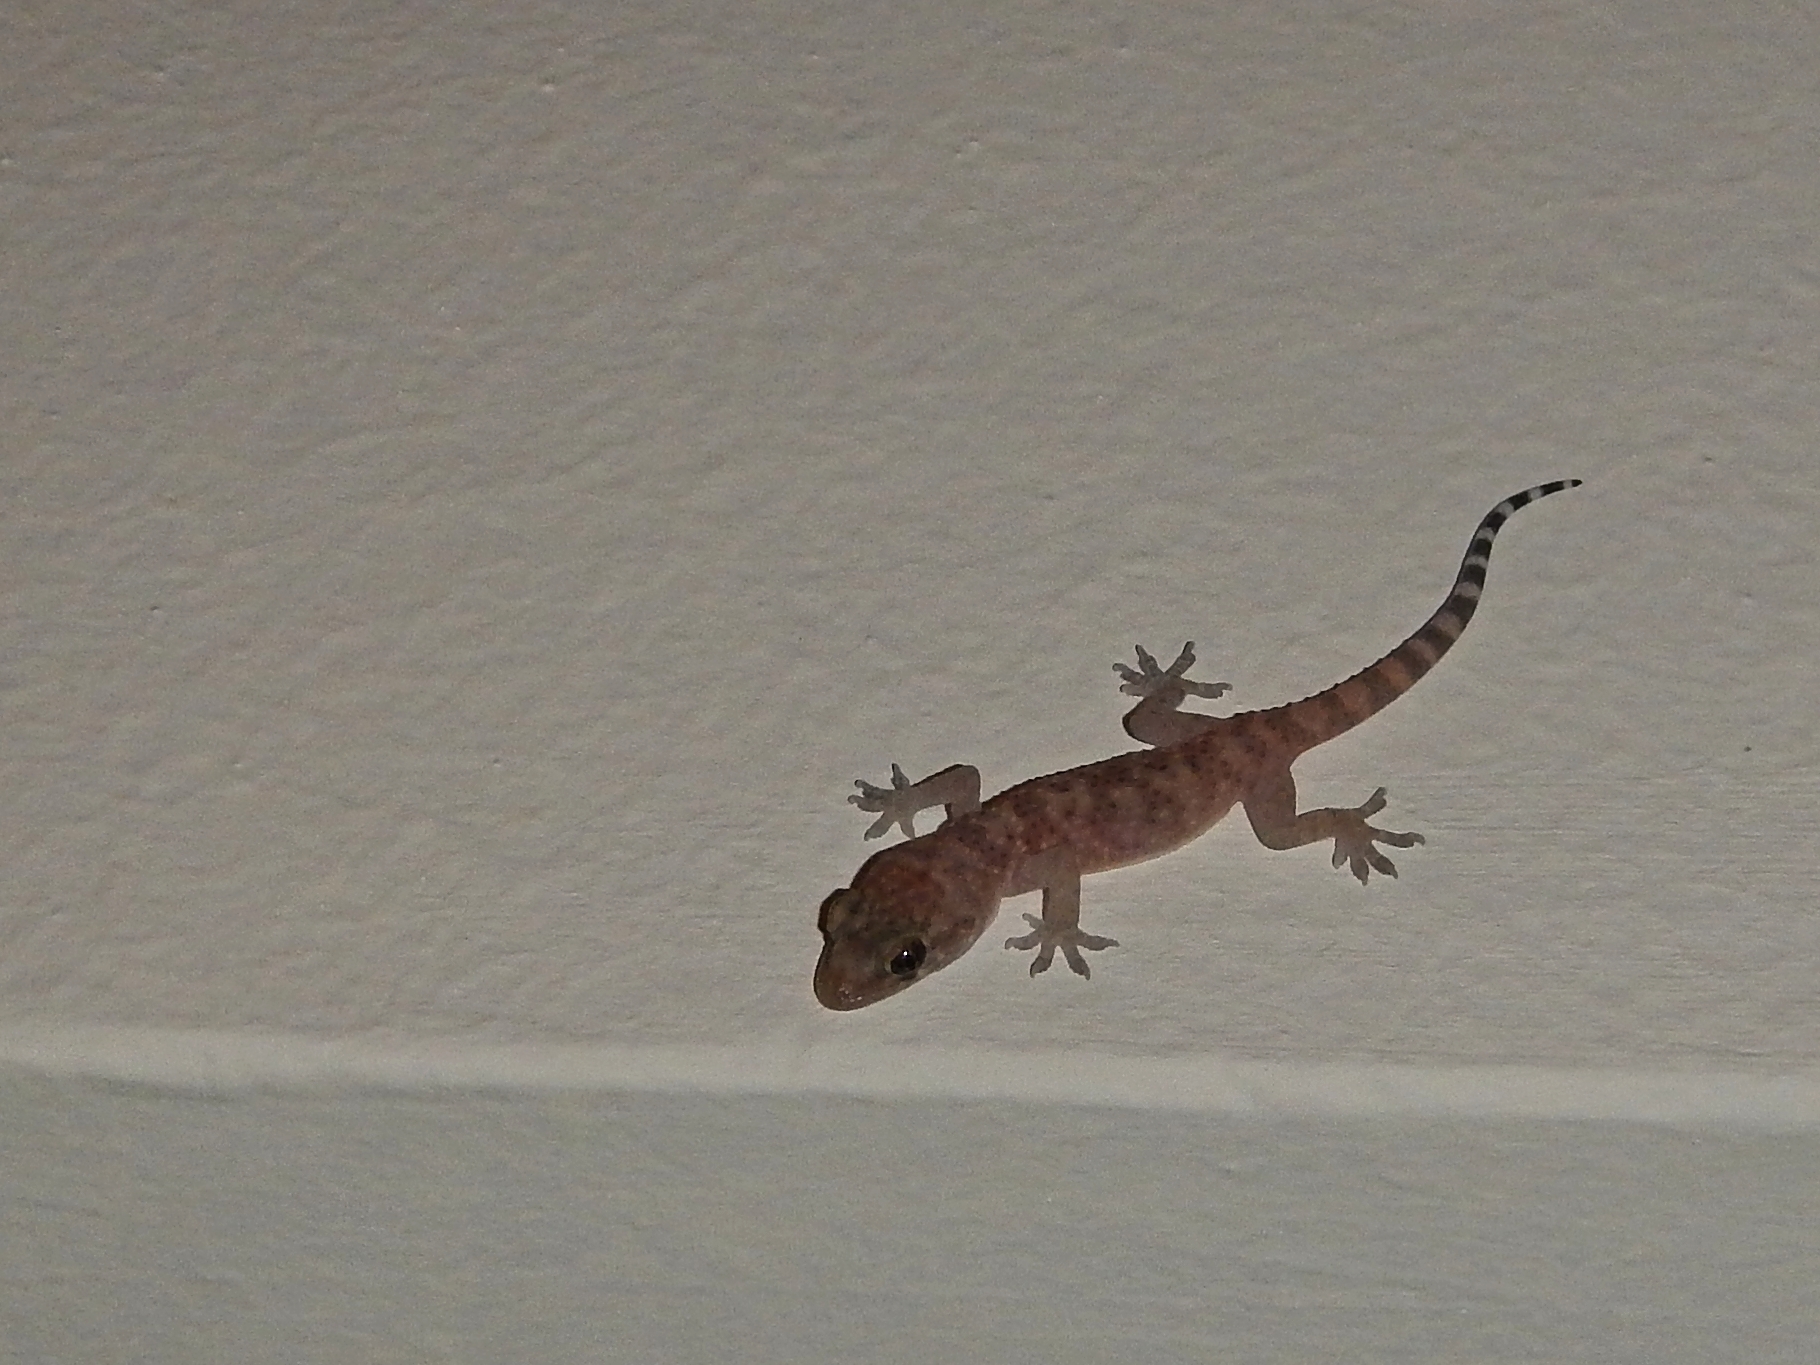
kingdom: Animalia
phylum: Chordata
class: Squamata
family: Gekkonidae
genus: Hemidactylus
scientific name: Hemidactylus turcicus
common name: Turkish gecko
